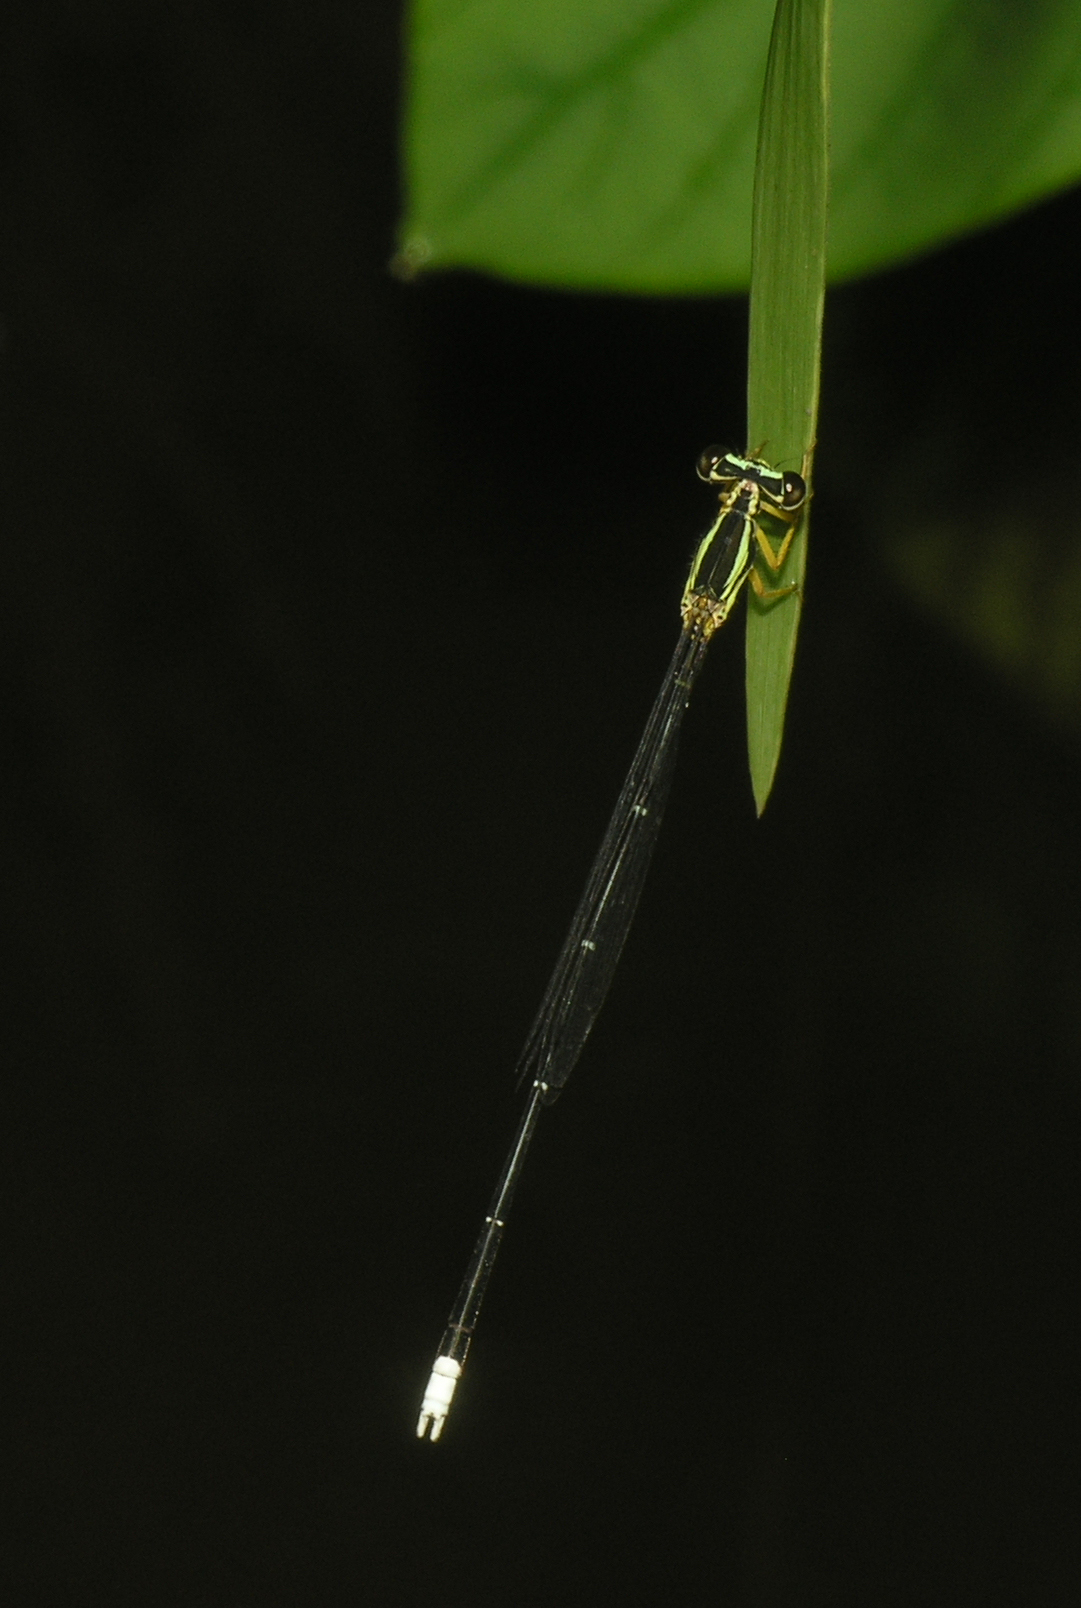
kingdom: Animalia
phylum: Arthropoda
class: Insecta
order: Odonata
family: Platycnemididae
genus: Copera
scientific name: Copera marginipes
